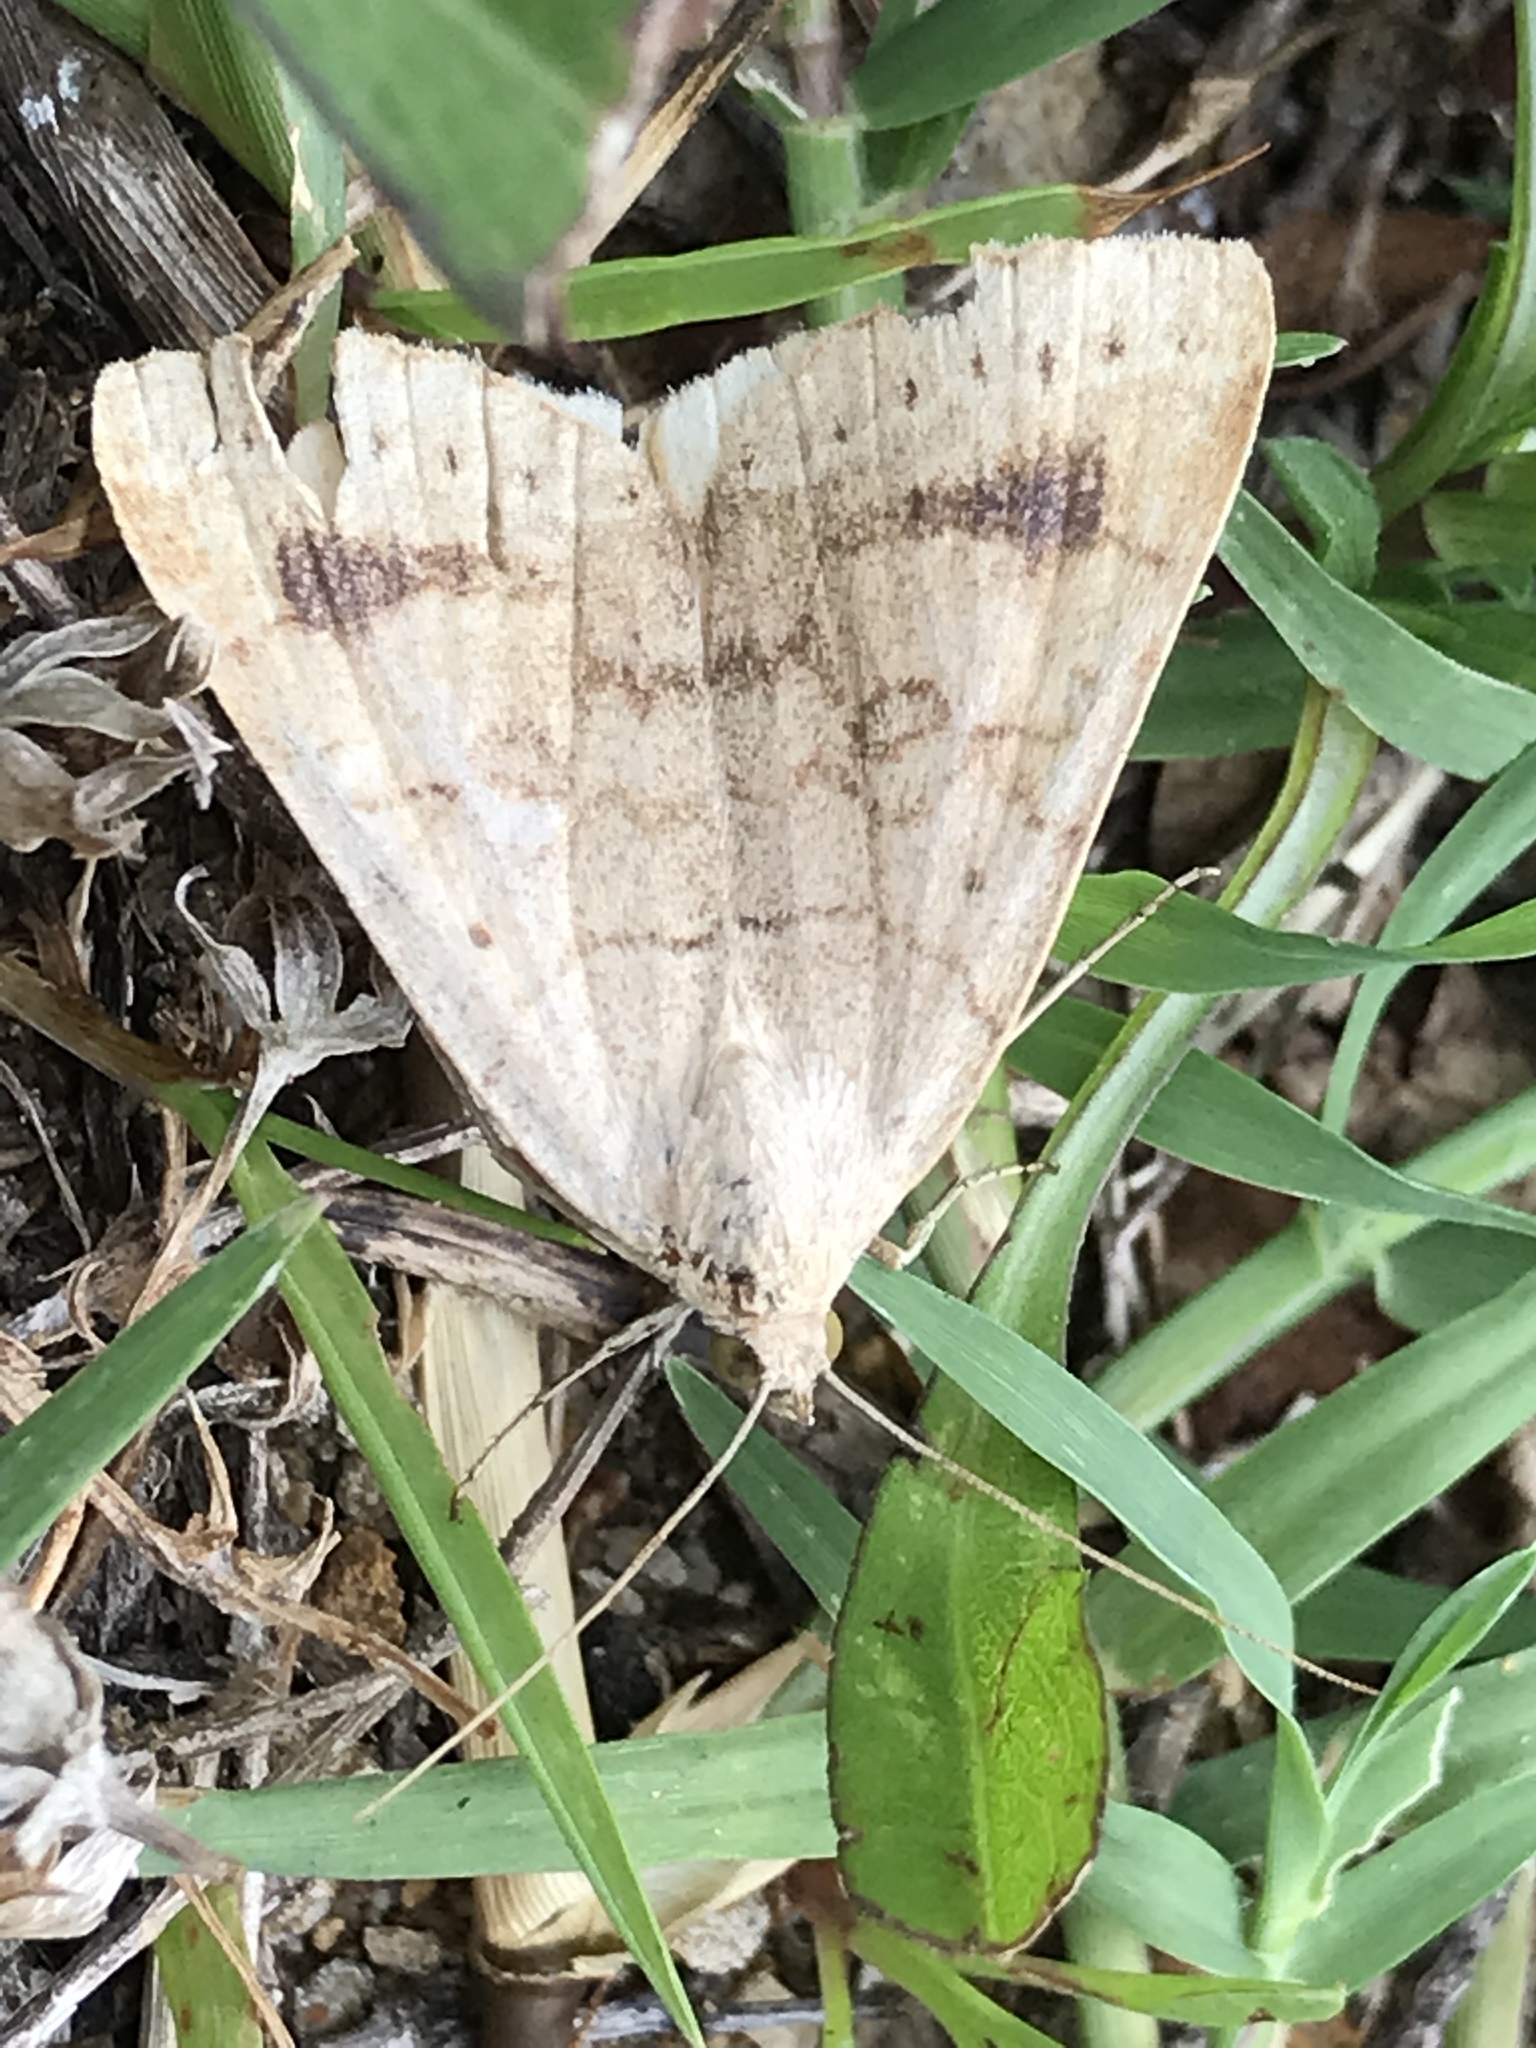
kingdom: Animalia
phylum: Arthropoda
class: Insecta
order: Lepidoptera
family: Erebidae
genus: Caenurgia
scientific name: Caenurgia chloropha
